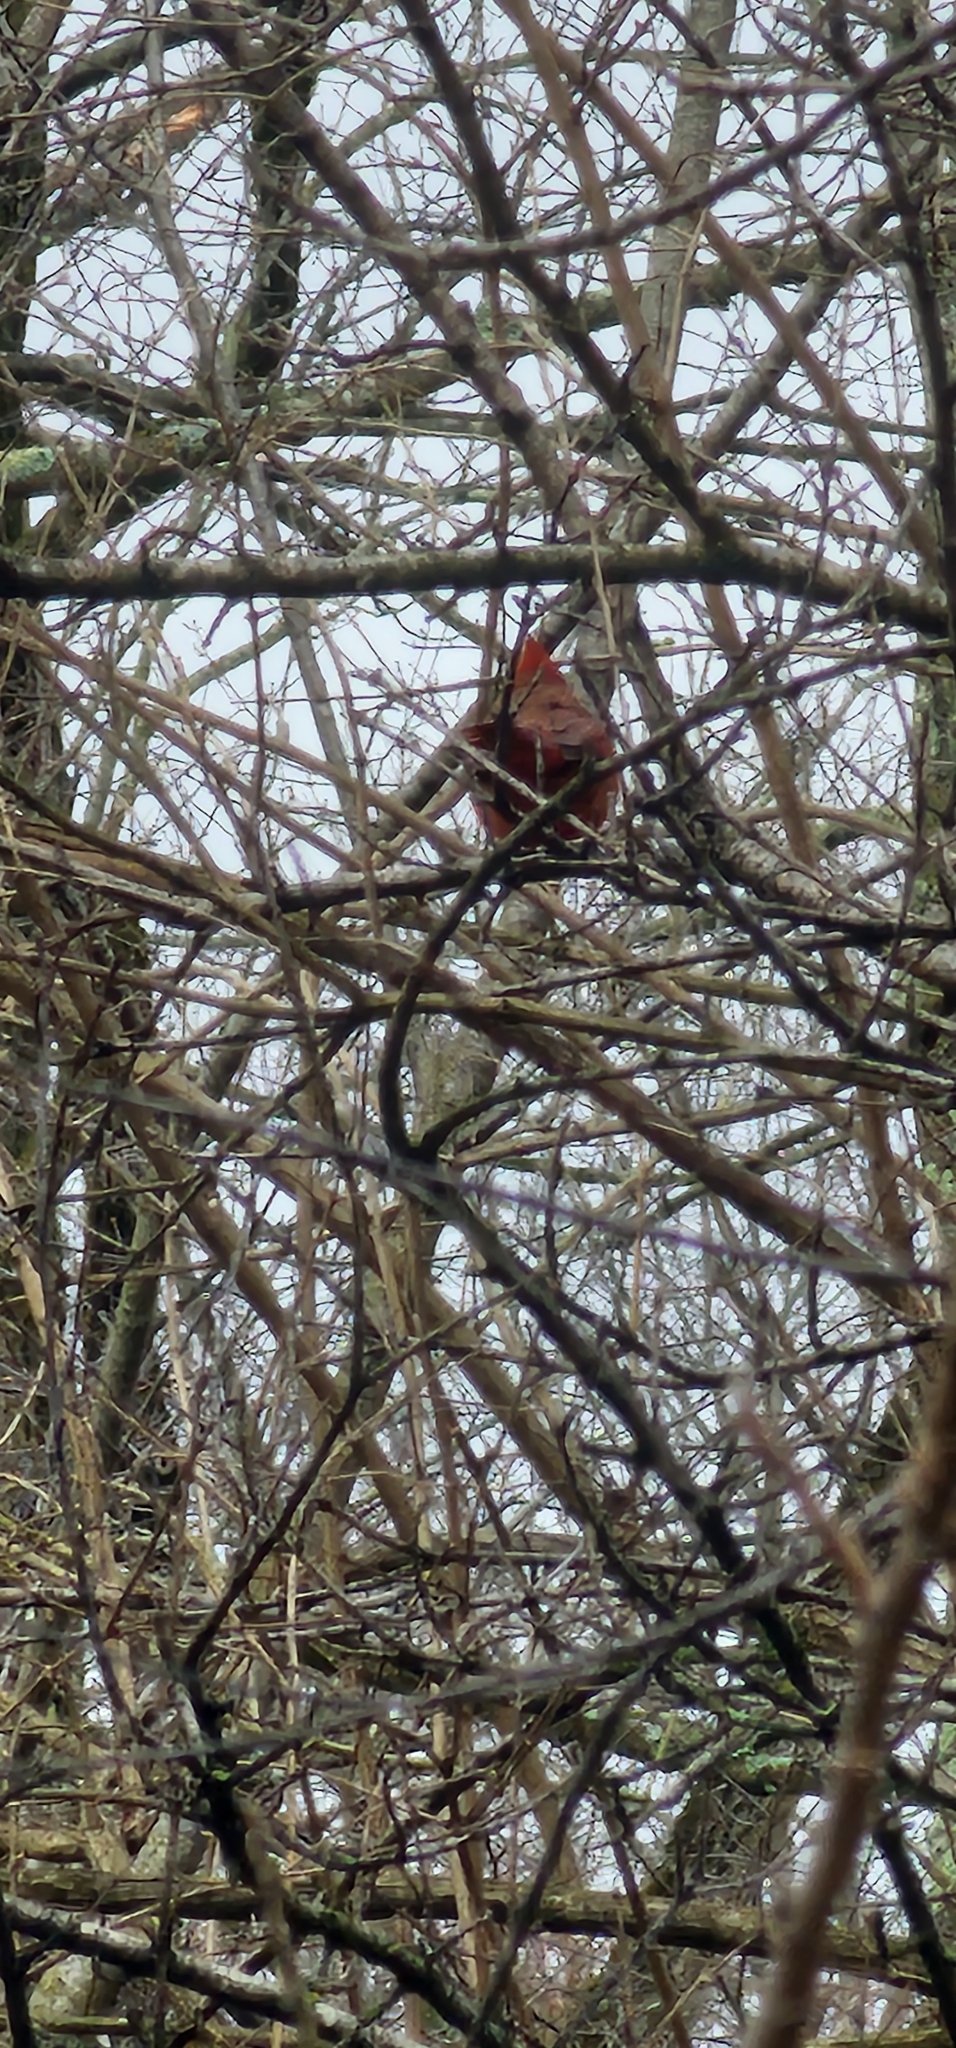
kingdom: Animalia
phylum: Chordata
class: Aves
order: Passeriformes
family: Cardinalidae
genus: Cardinalis
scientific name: Cardinalis cardinalis
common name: Northern cardinal
